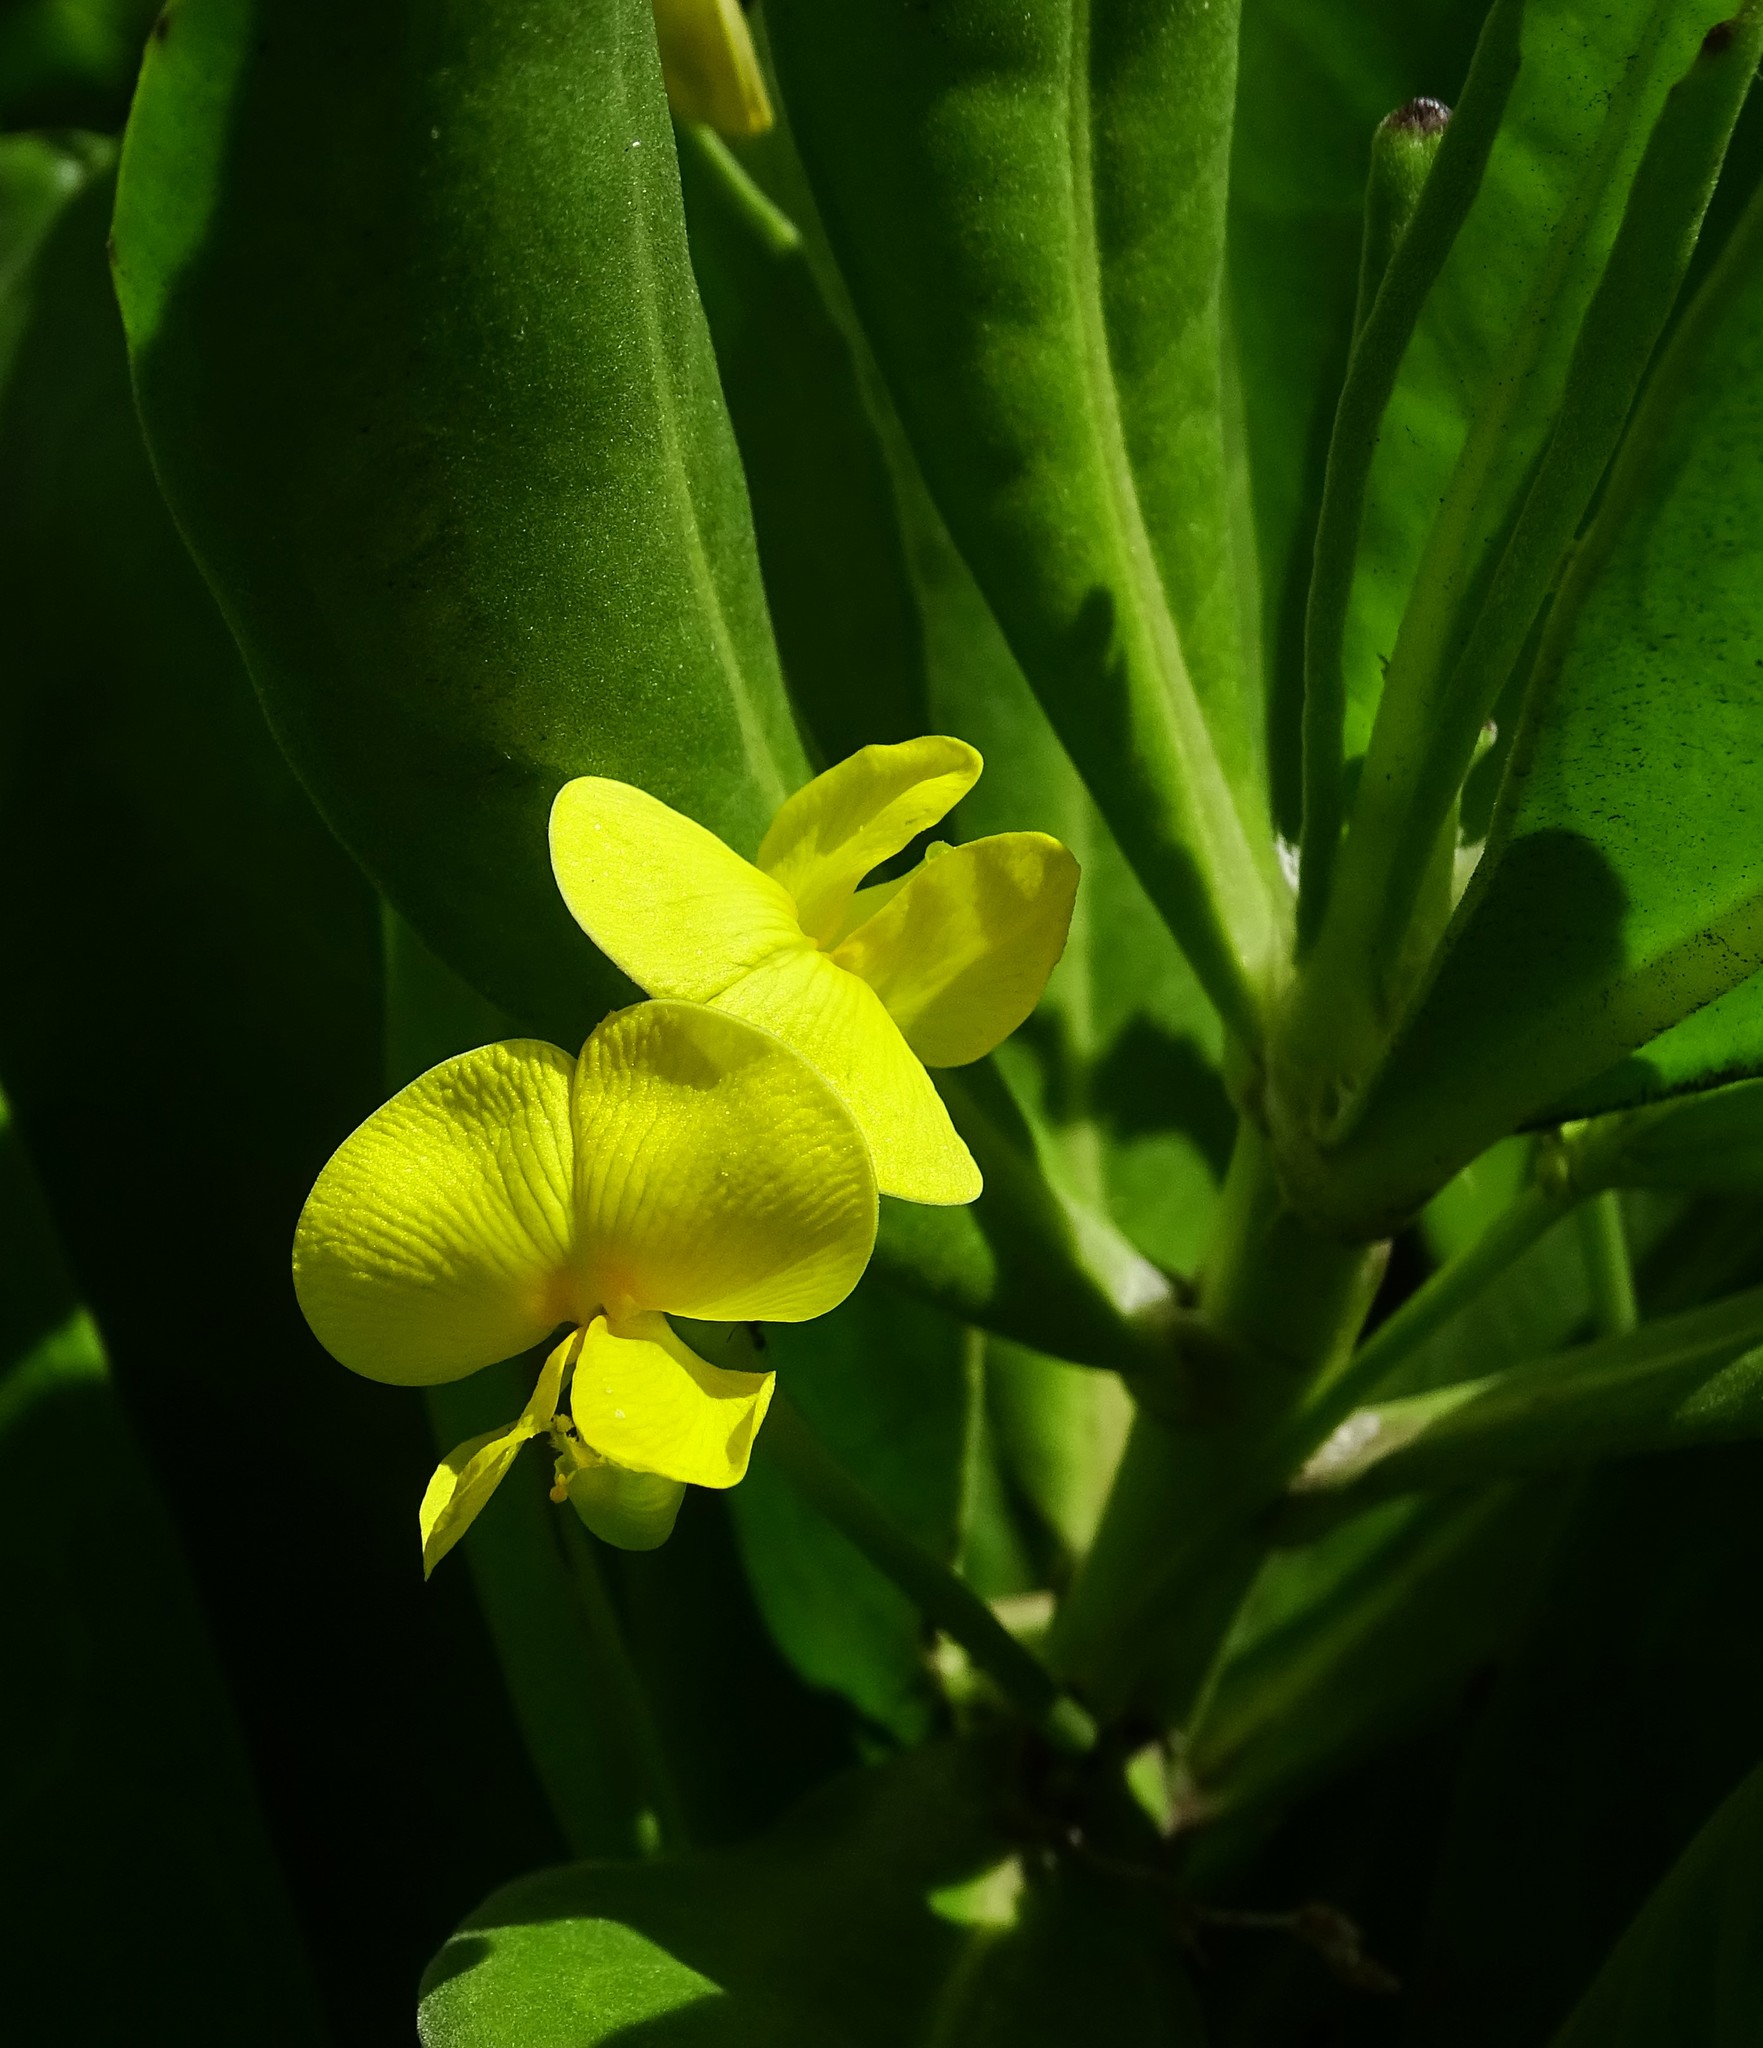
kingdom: Plantae
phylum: Tracheophyta
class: Magnoliopsida
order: Fabales
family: Fabaceae
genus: Vigna
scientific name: Vigna marina
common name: Dune-bean
